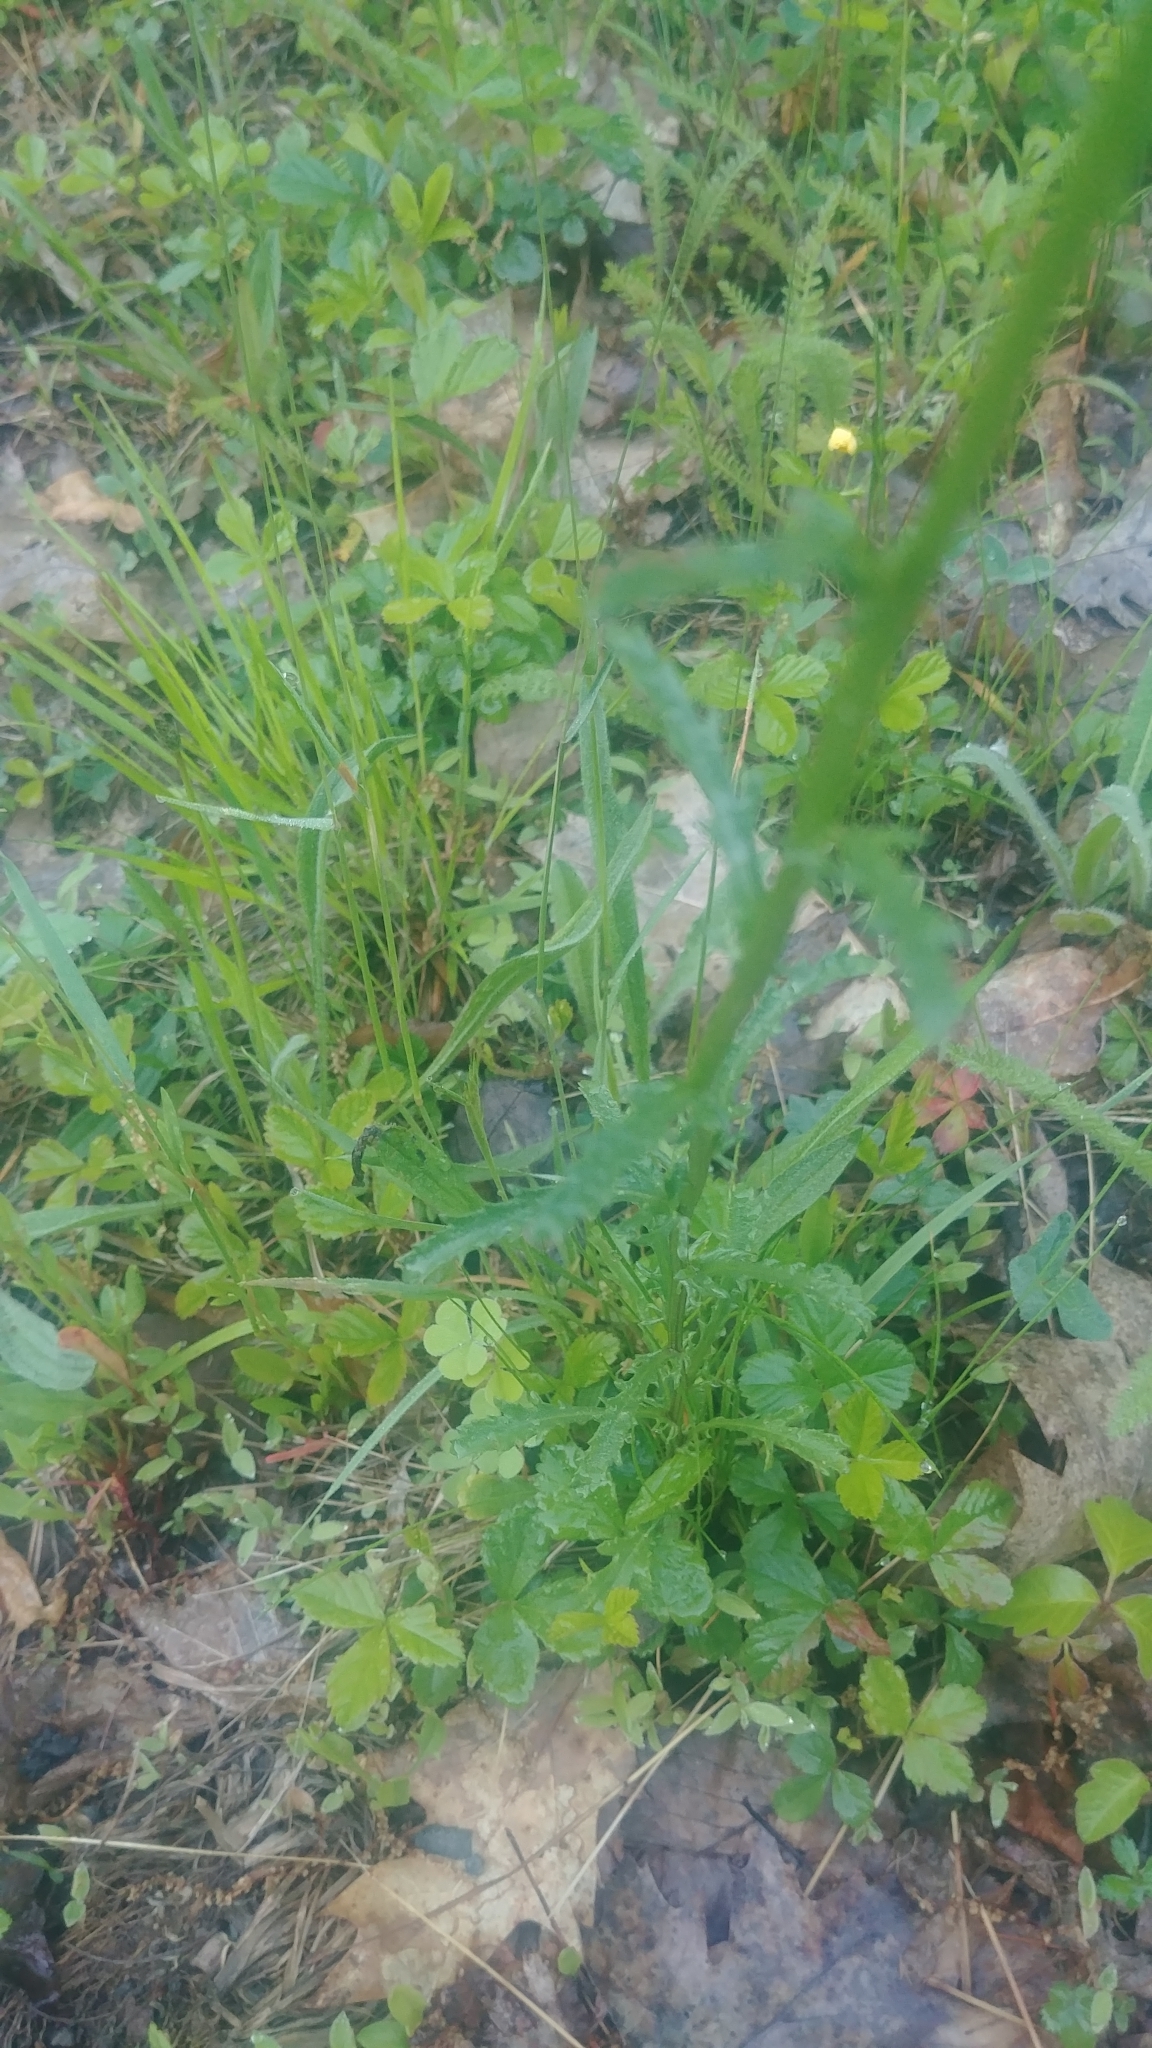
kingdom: Plantae
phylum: Tracheophyta
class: Magnoliopsida
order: Asterales
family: Asteraceae
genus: Leucanthemum
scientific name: Leucanthemum vulgare
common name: Oxeye daisy
